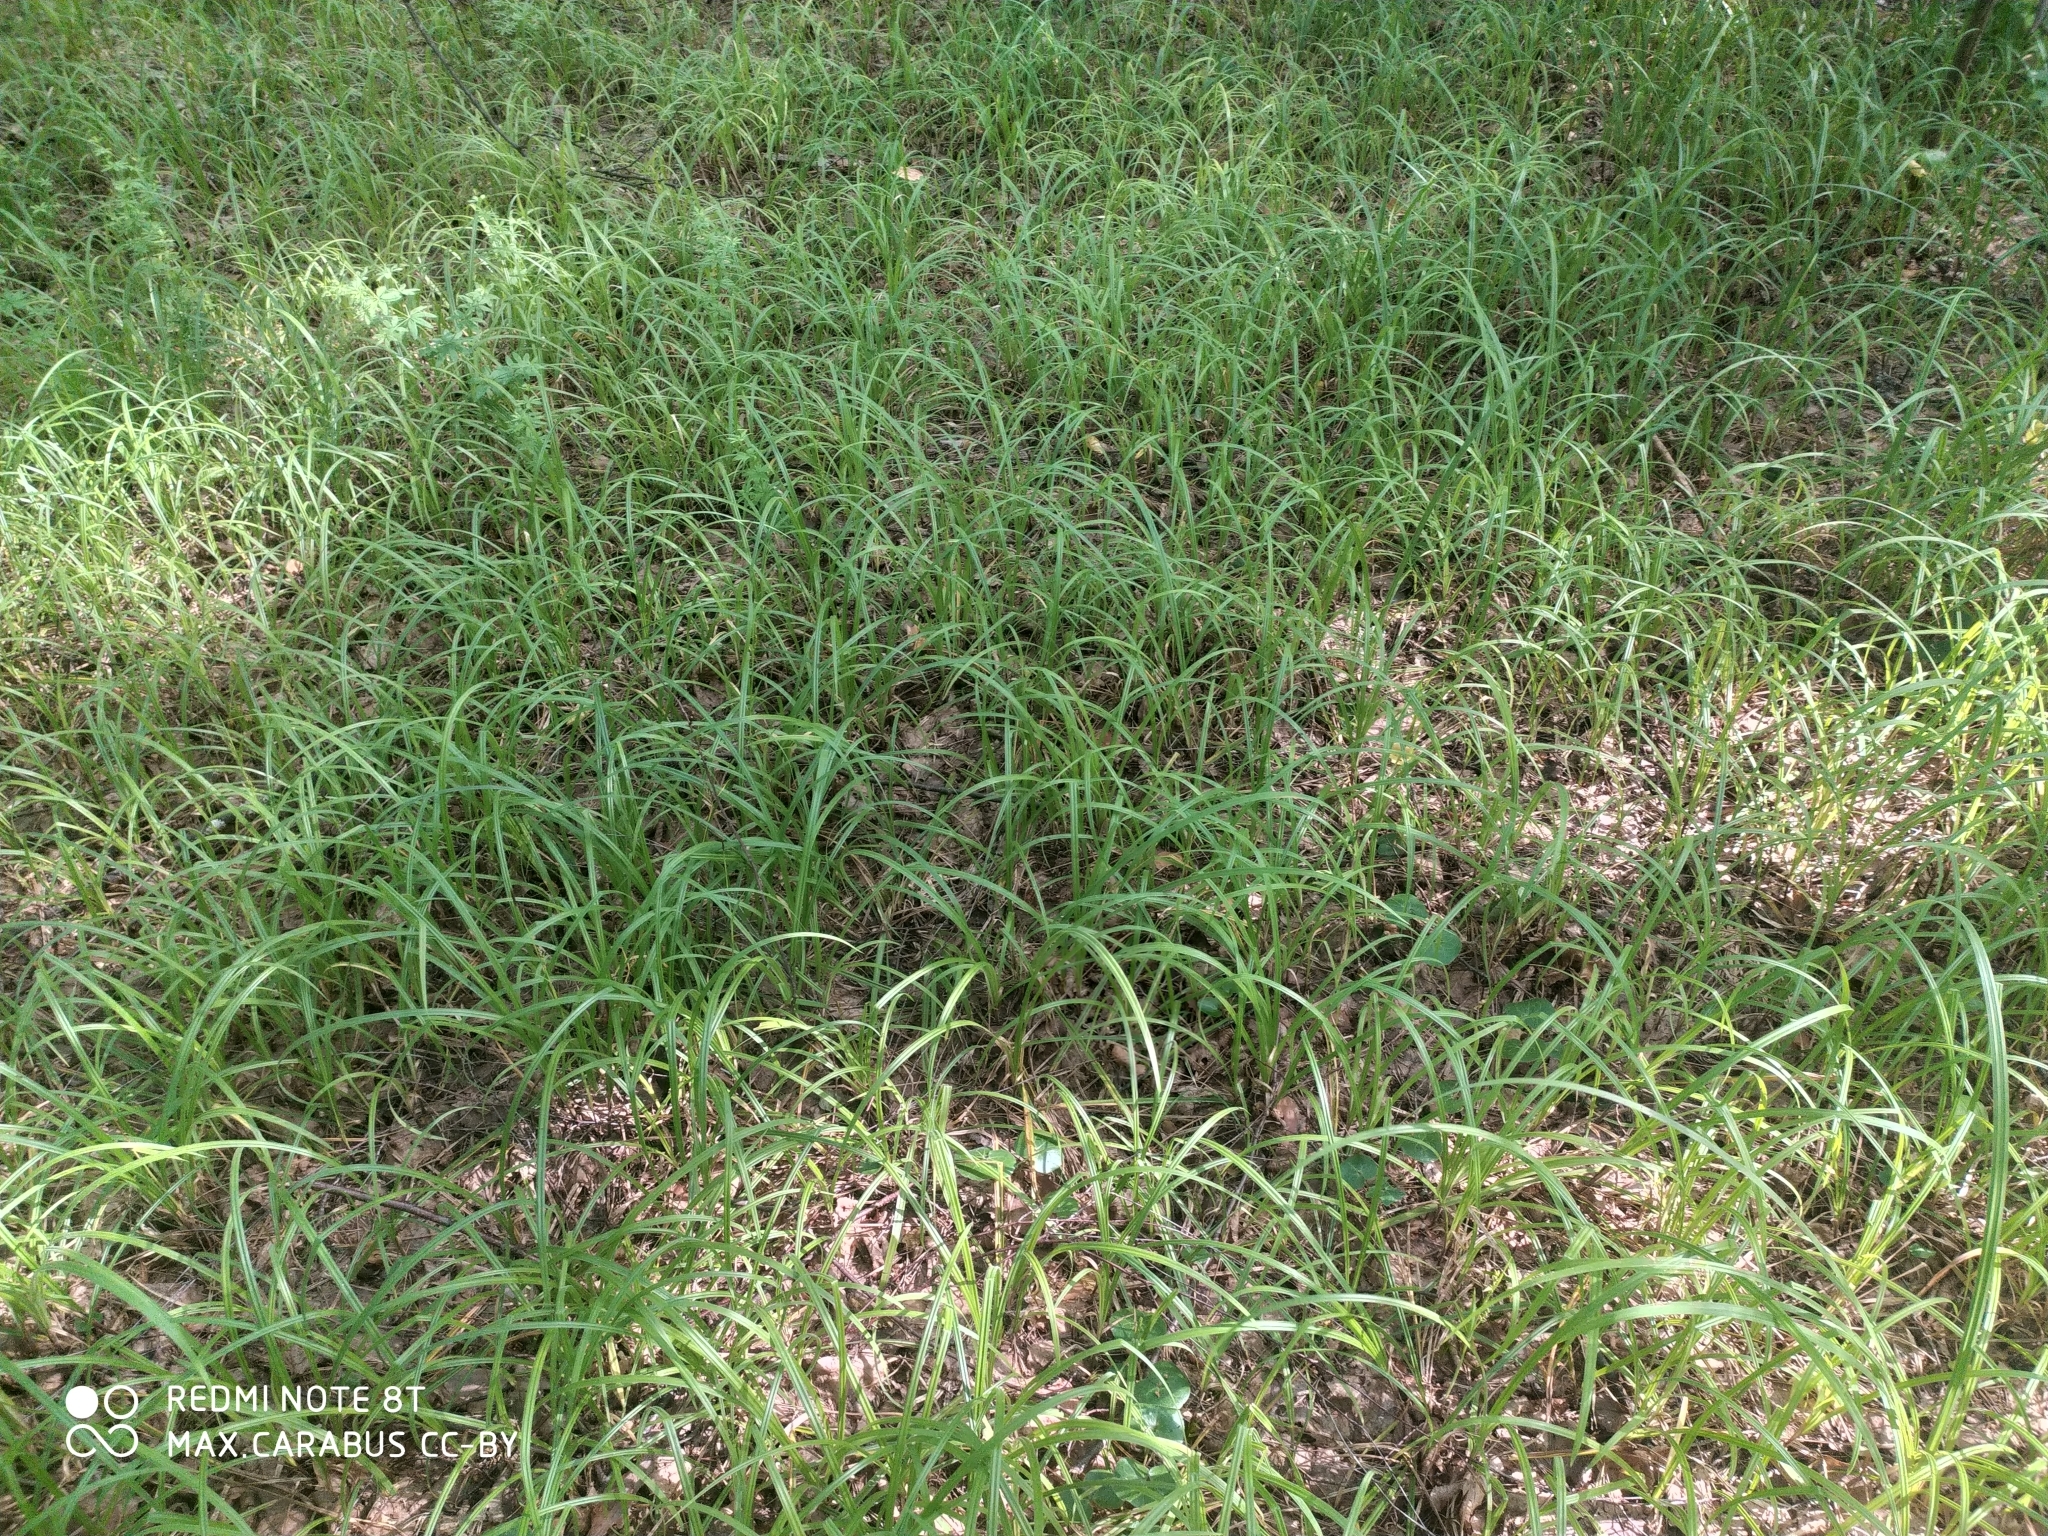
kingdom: Plantae
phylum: Tracheophyta
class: Liliopsida
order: Poales
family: Cyperaceae
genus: Carex
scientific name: Carex pilosa
